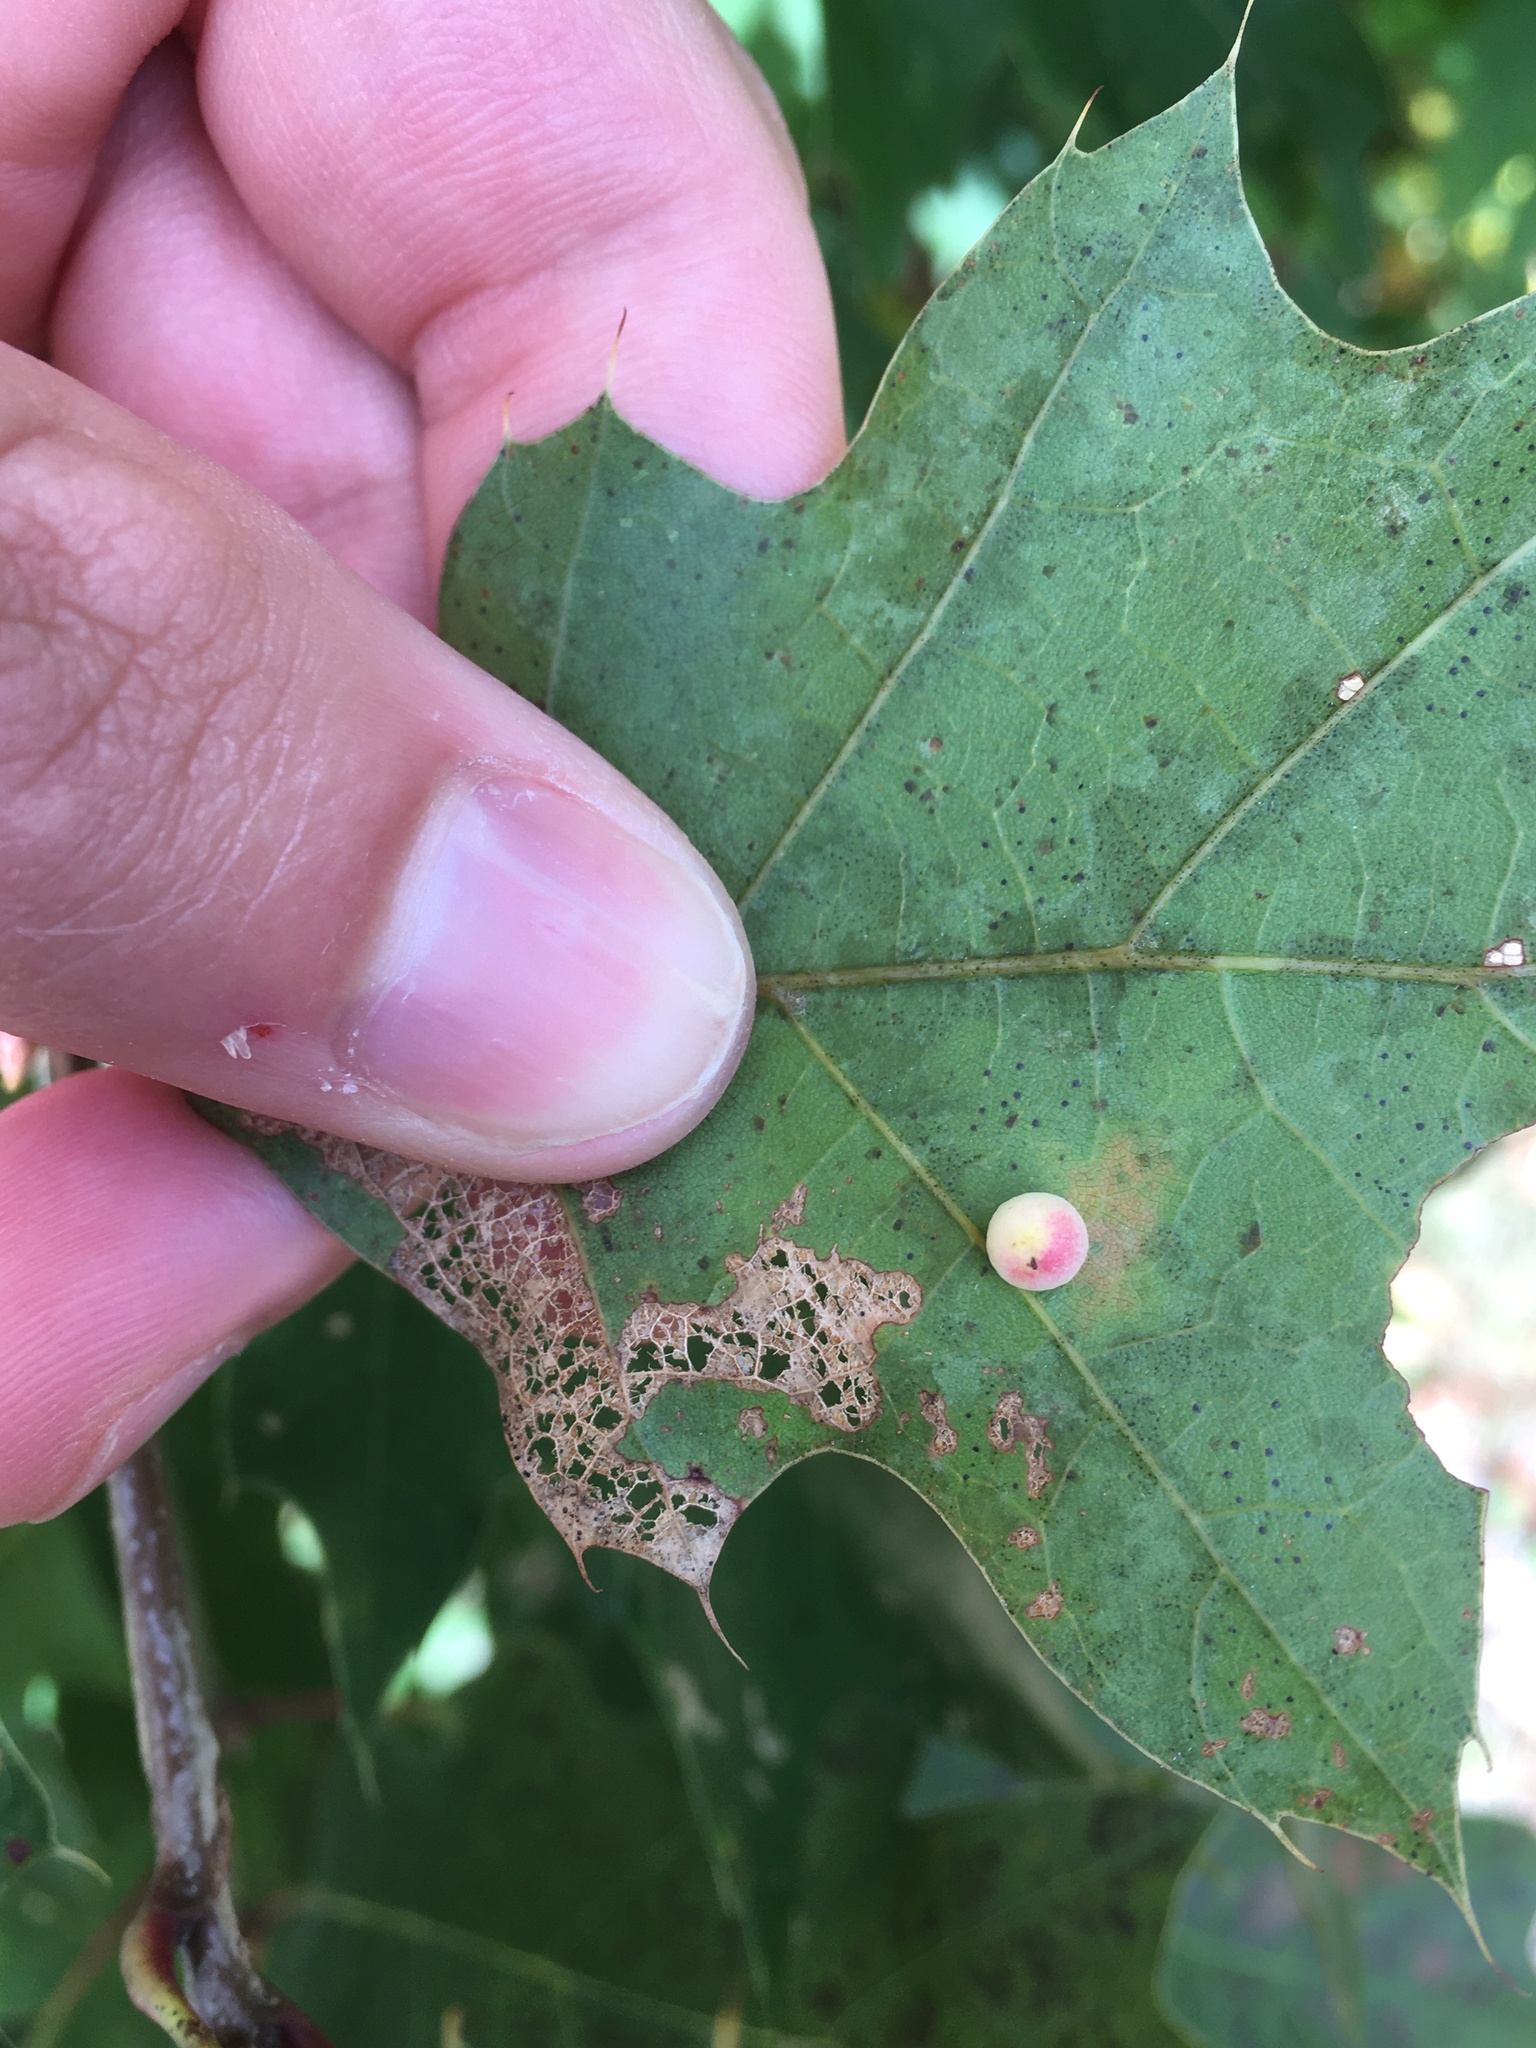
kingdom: Animalia
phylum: Arthropoda
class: Insecta
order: Hymenoptera
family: Cynipidae
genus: Zopheroteras
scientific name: Zopheroteras
